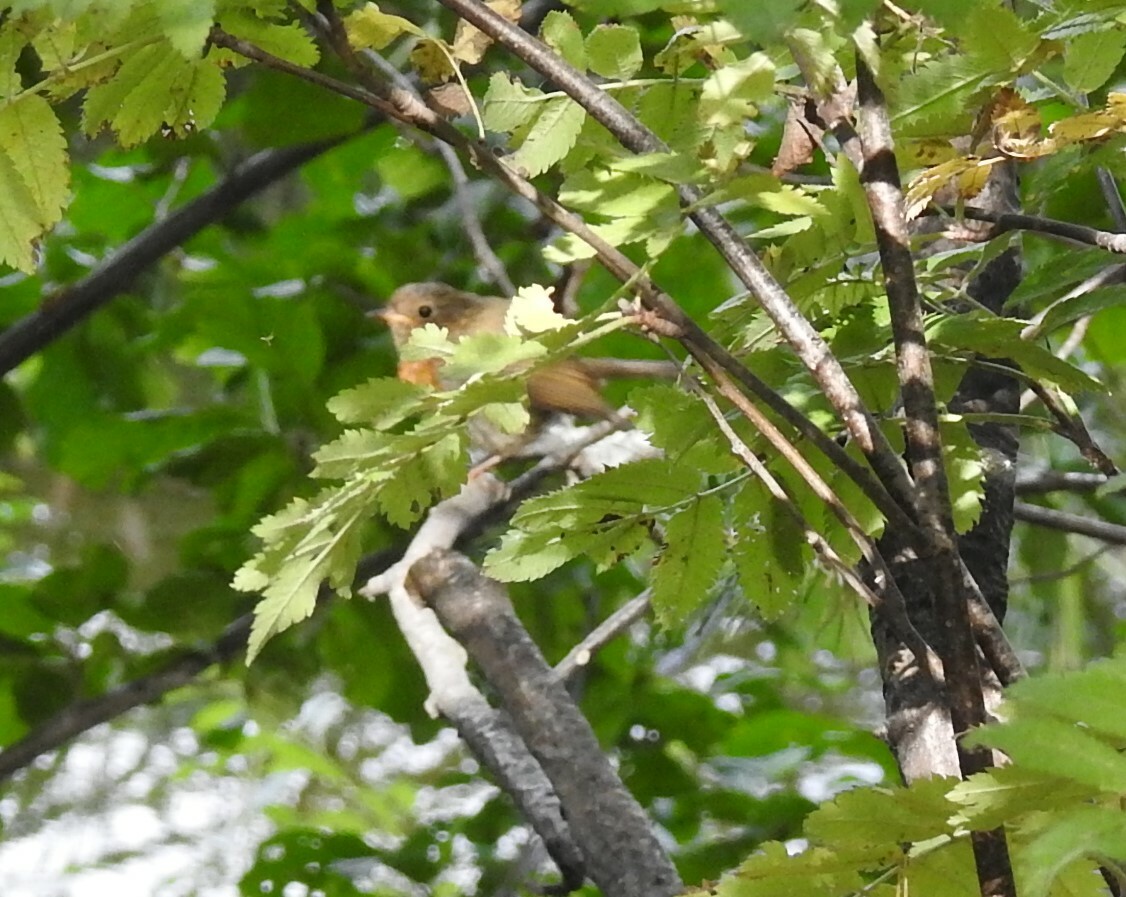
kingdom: Animalia
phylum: Chordata
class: Aves
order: Passeriformes
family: Muscicapidae
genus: Erithacus
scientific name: Erithacus rubecula
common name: European robin
